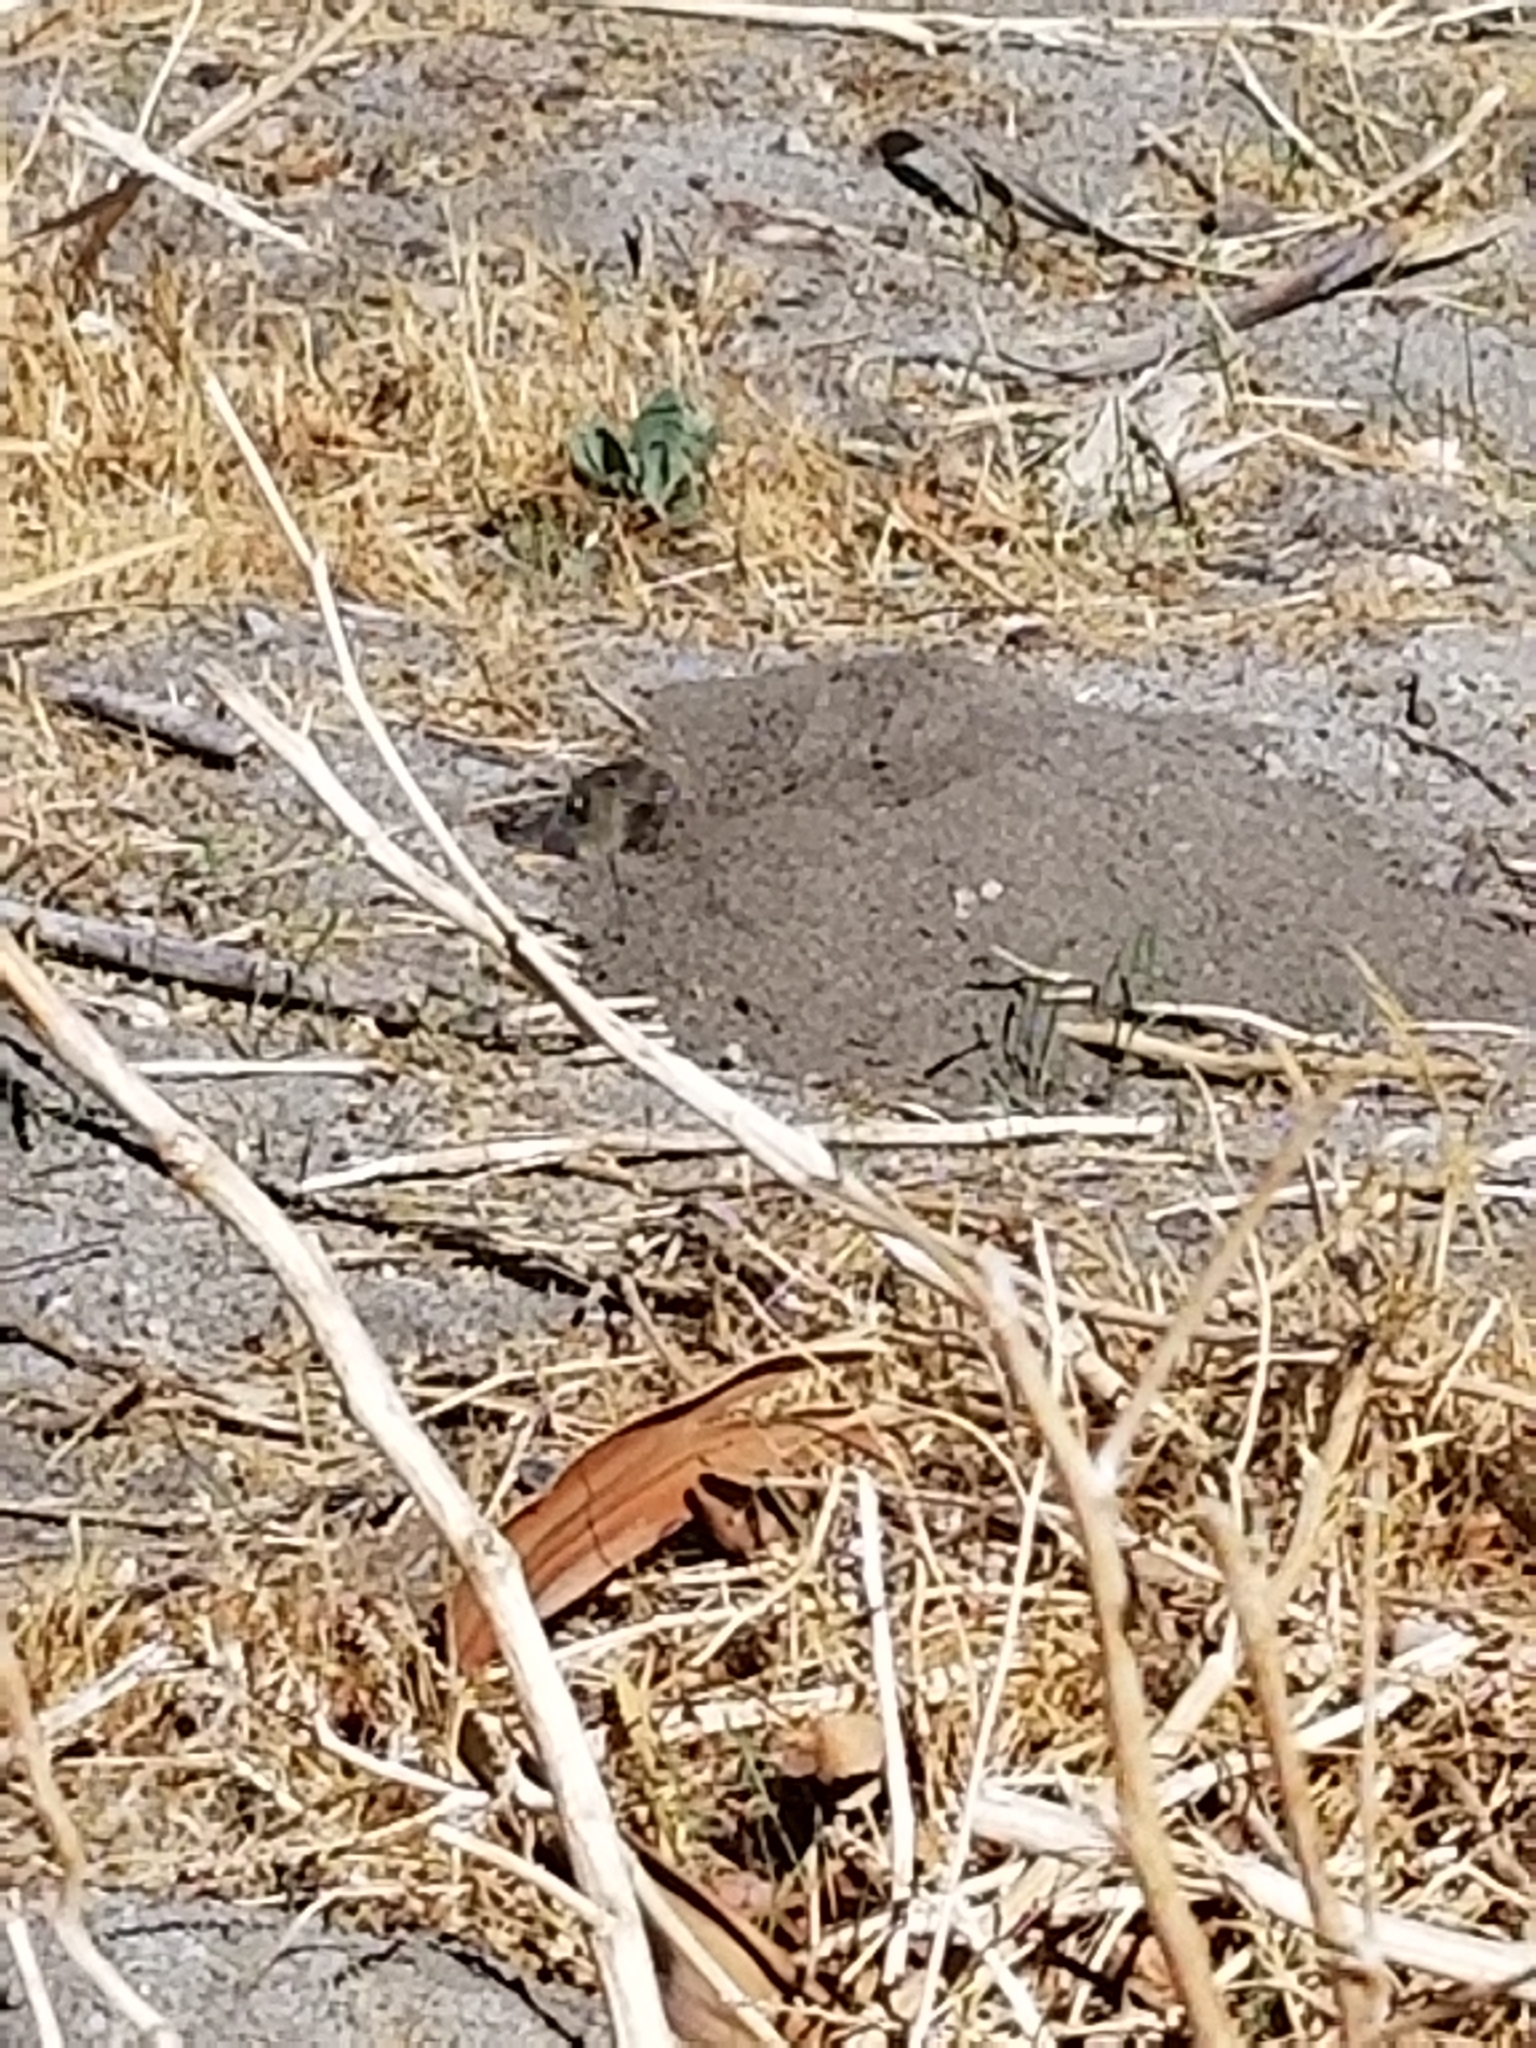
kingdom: Animalia
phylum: Chordata
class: Mammalia
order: Rodentia
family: Geomyidae
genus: Thomomys
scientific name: Thomomys bottae
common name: Botta's pocket gopher
